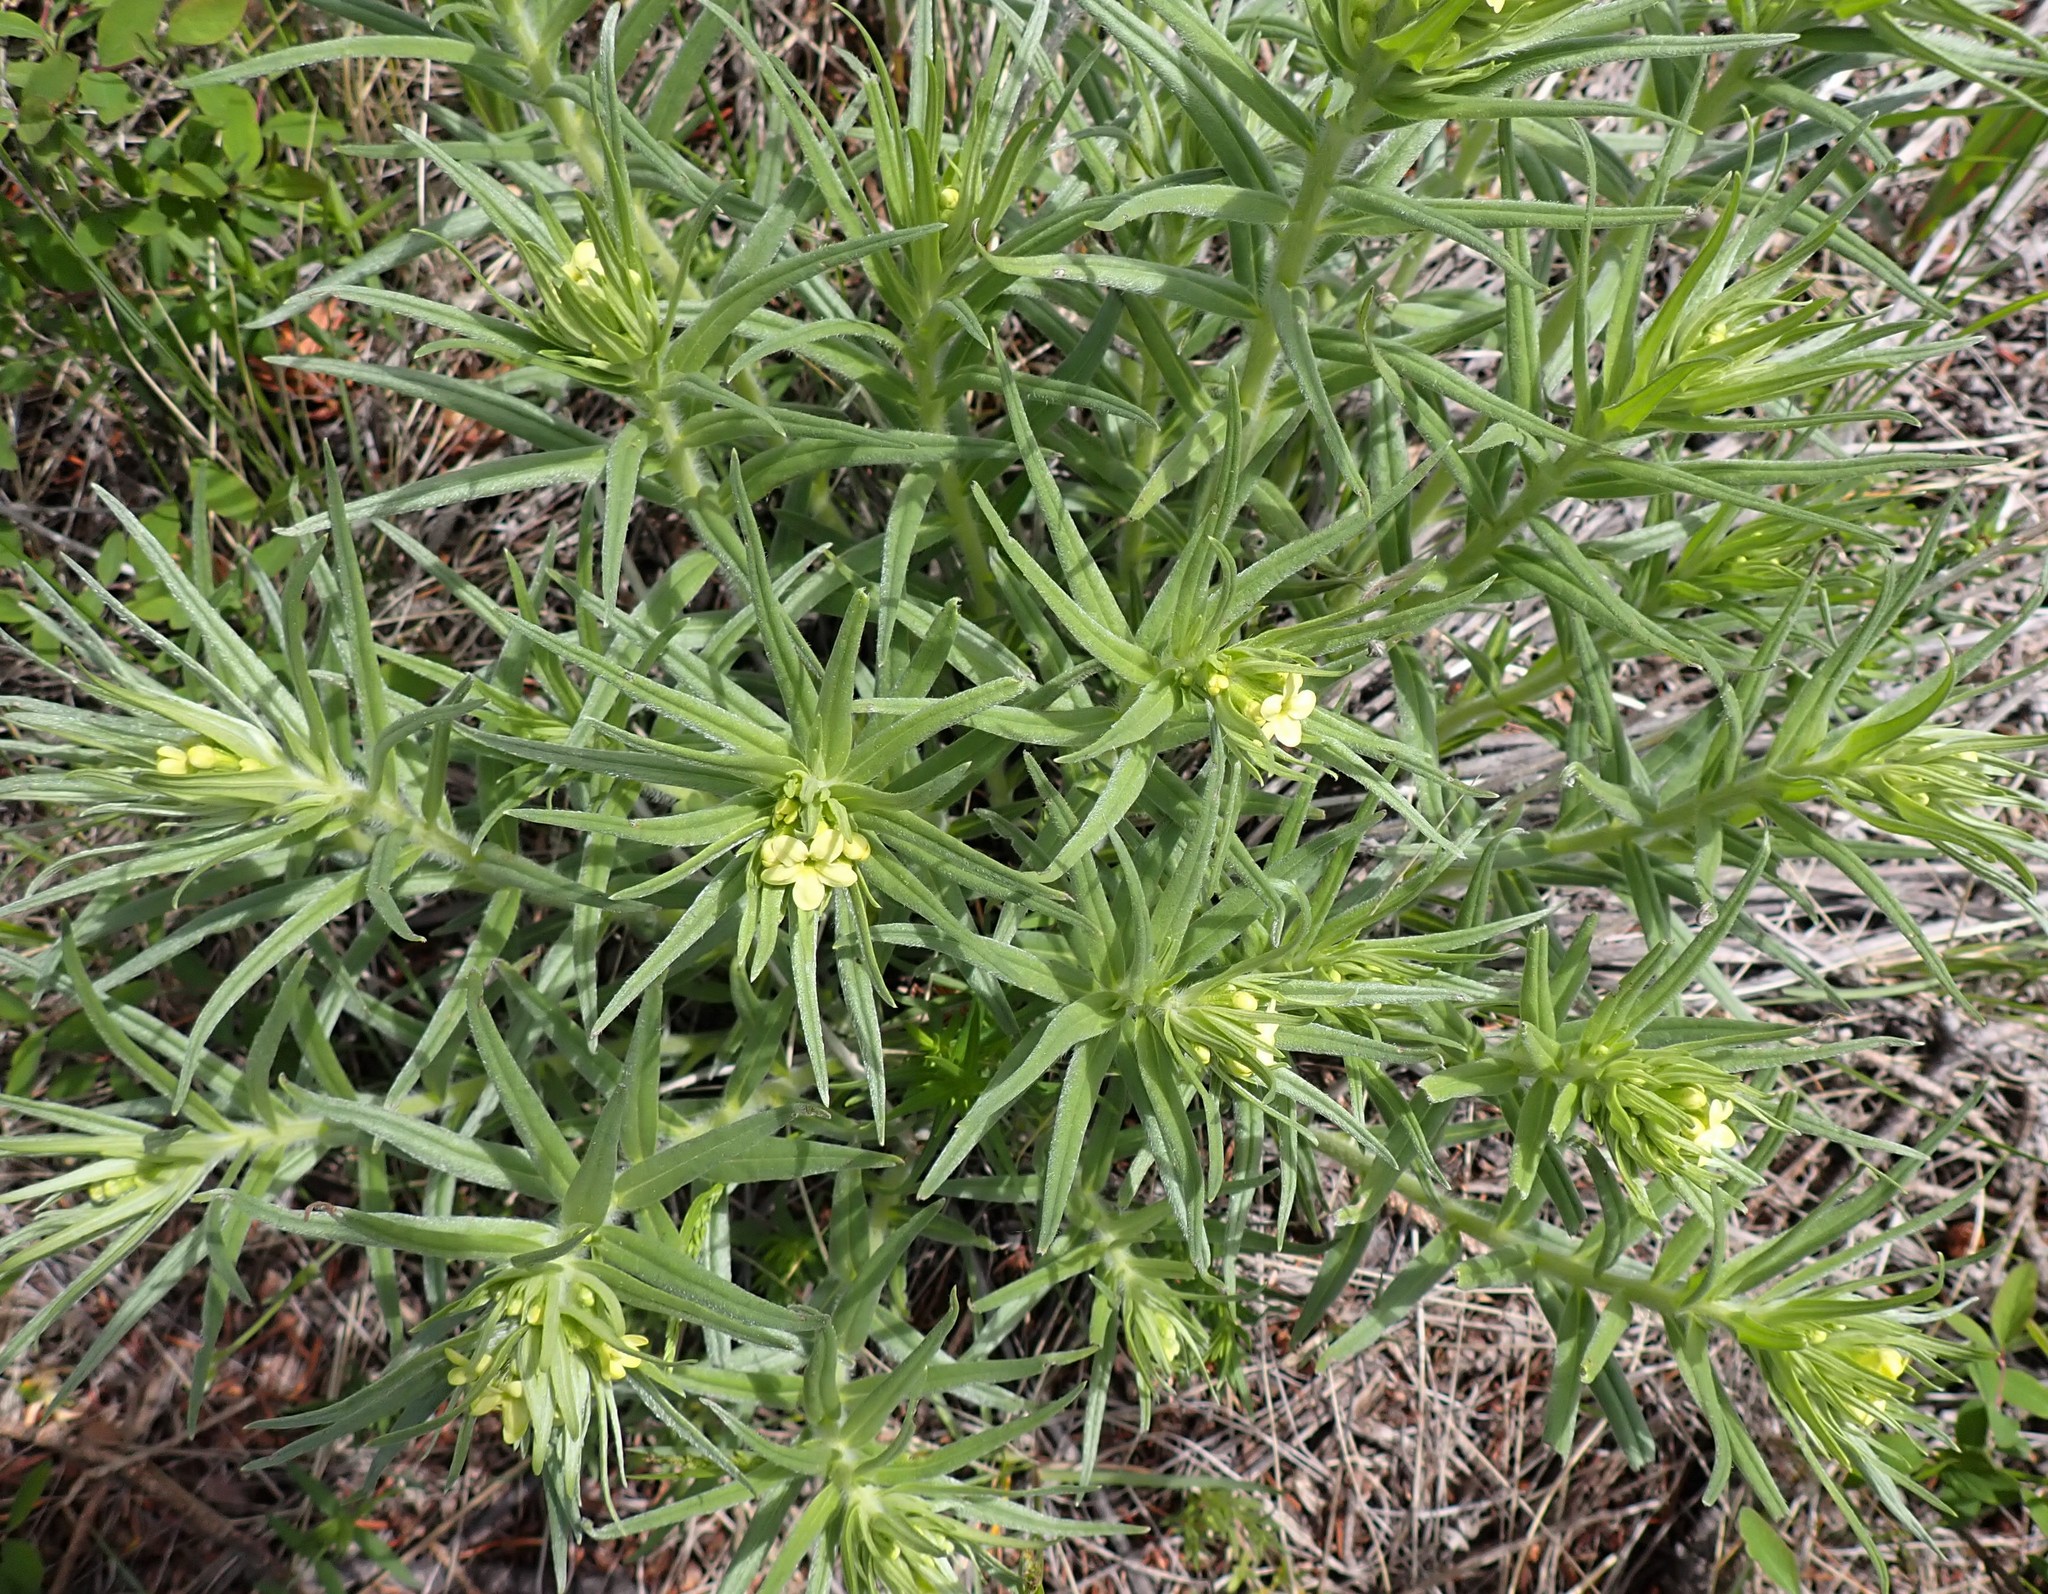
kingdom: Plantae
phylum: Tracheophyta
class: Magnoliopsida
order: Boraginales
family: Boraginaceae
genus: Lithospermum
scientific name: Lithospermum ruderale
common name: Western gromwell
